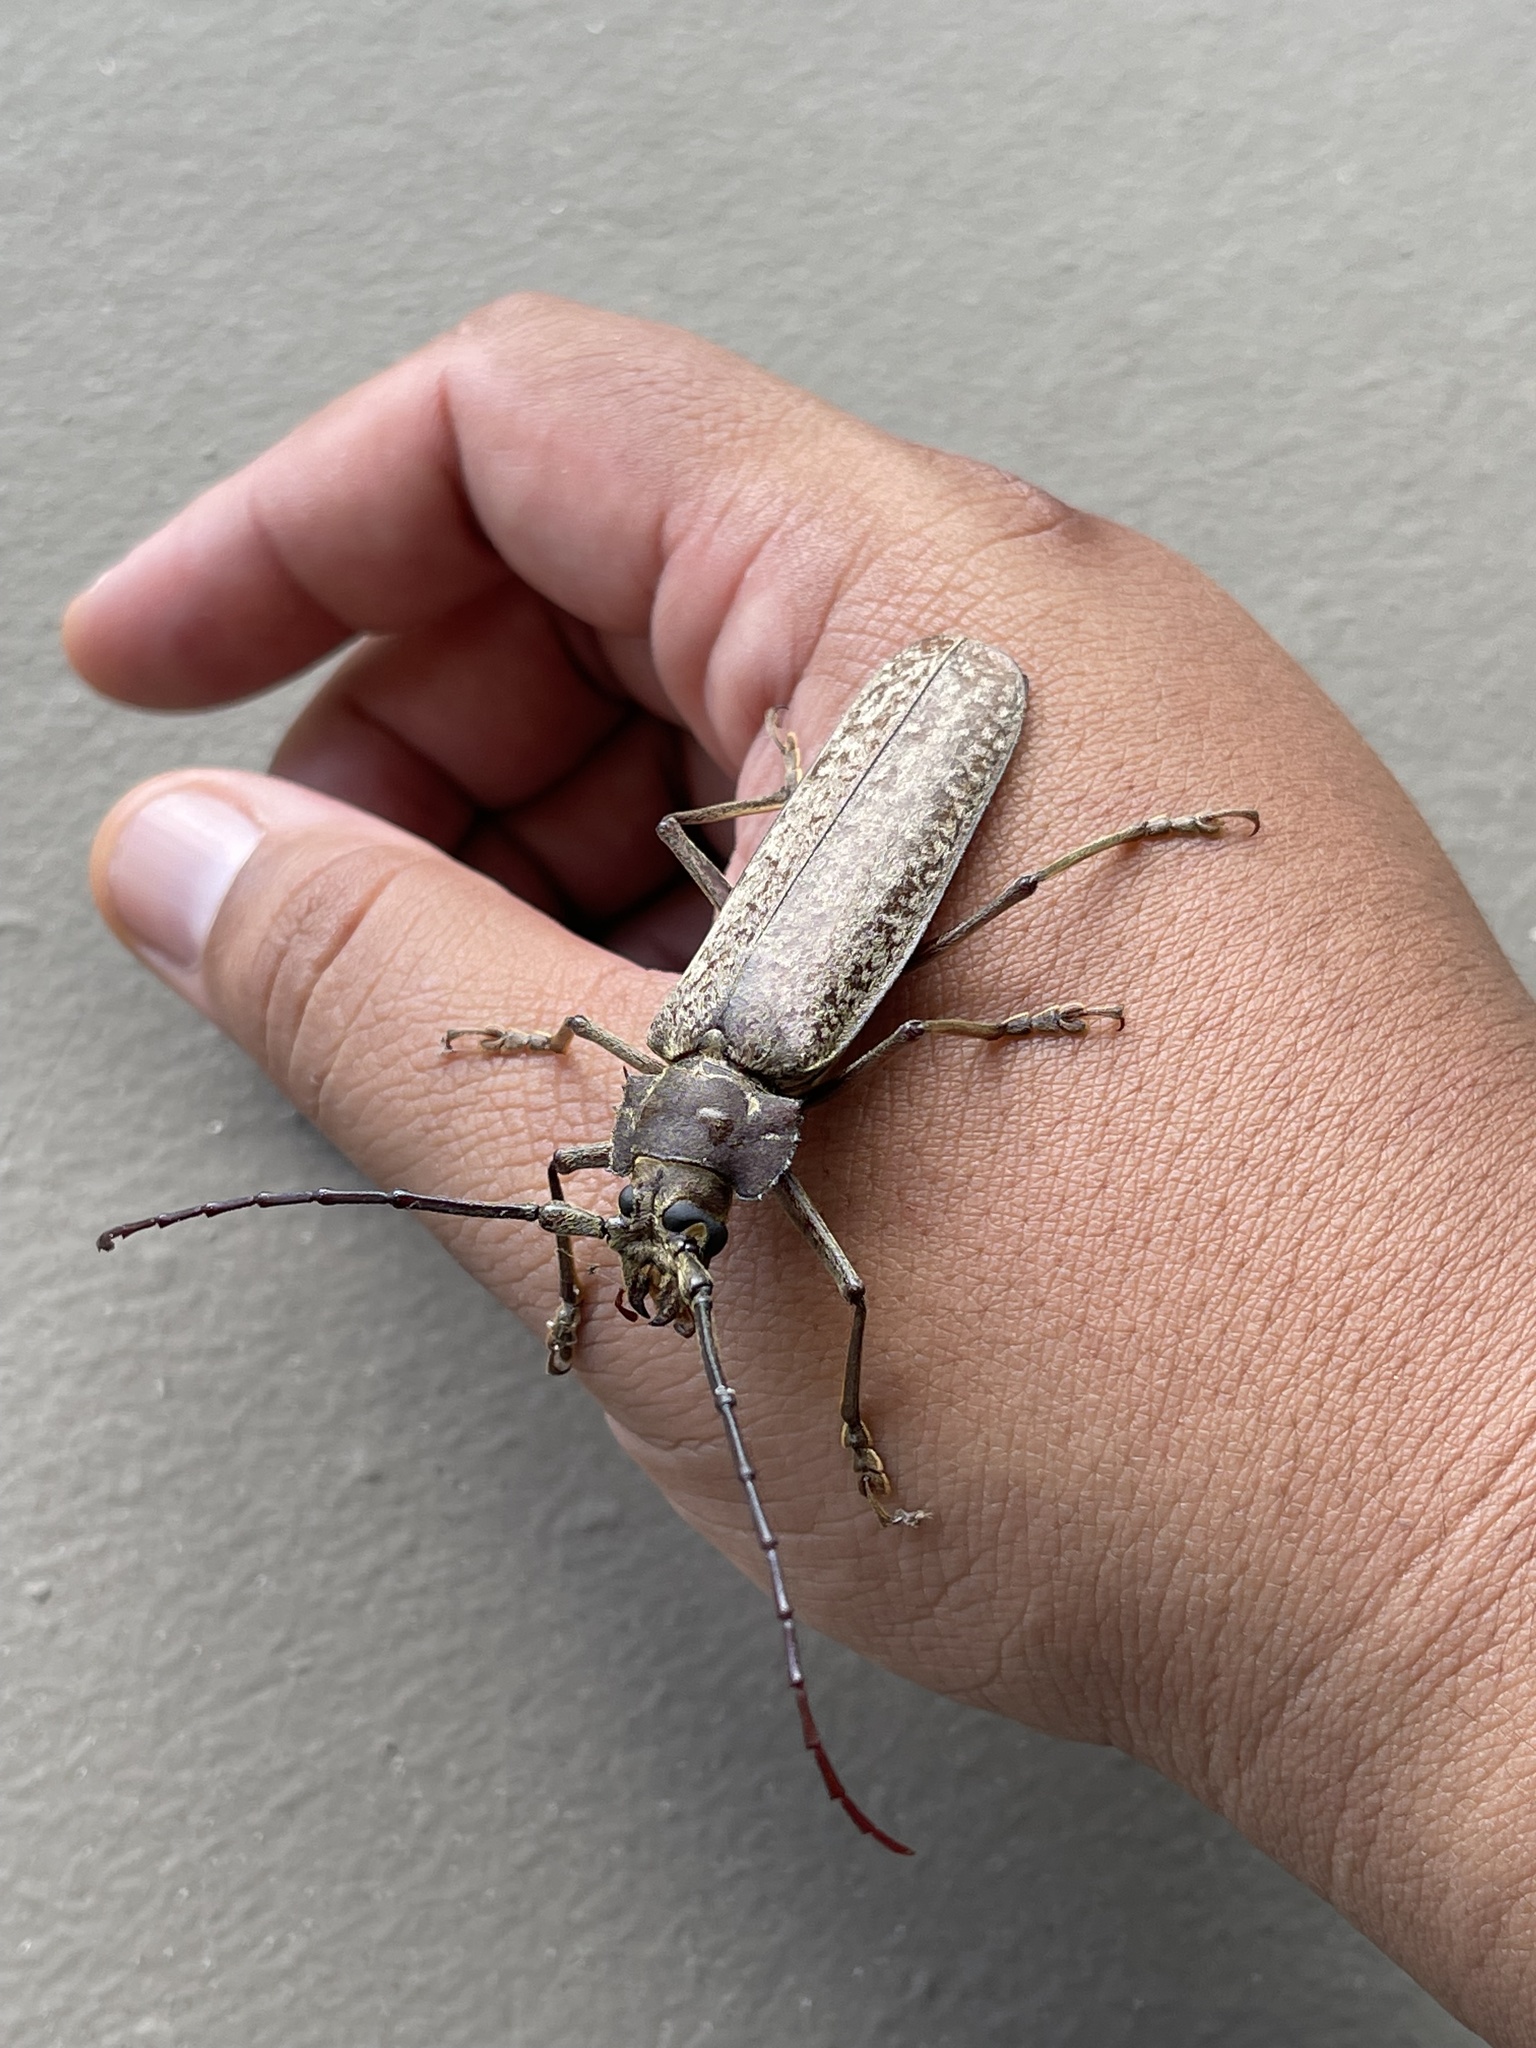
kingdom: Animalia
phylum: Arthropoda
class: Insecta
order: Coleoptera
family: Cerambycidae
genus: Callipogon
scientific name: Callipogon sericeus
